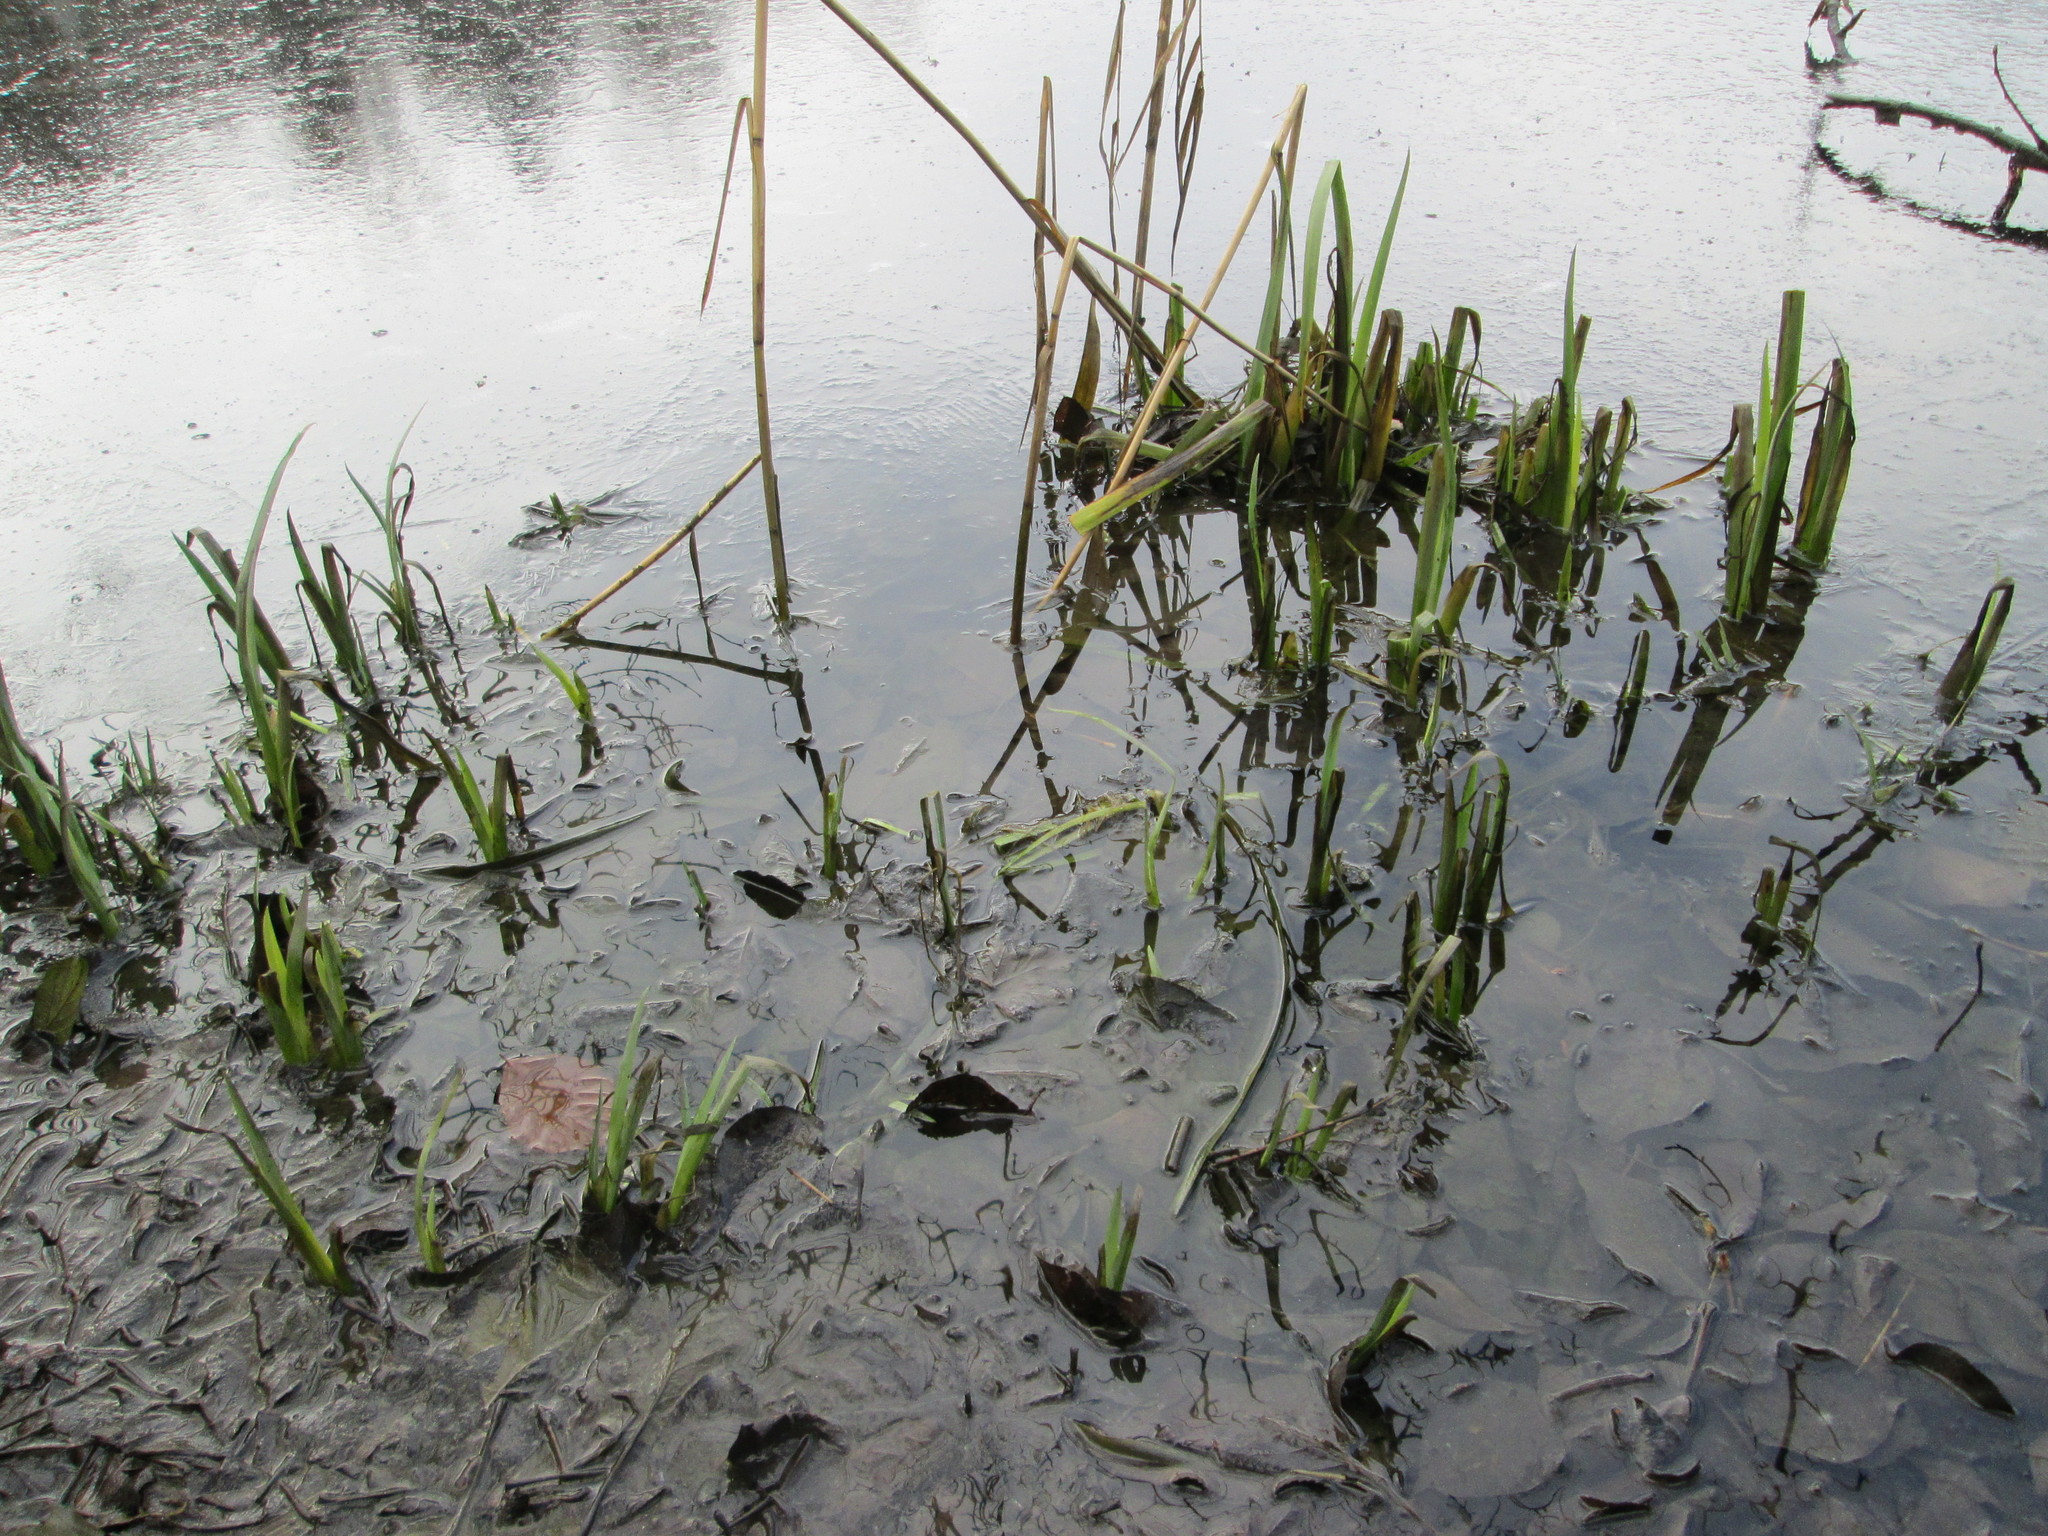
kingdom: Plantae
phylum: Tracheophyta
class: Liliopsida
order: Asparagales
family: Iridaceae
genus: Iris
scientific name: Iris pseudacorus
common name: Yellow flag
